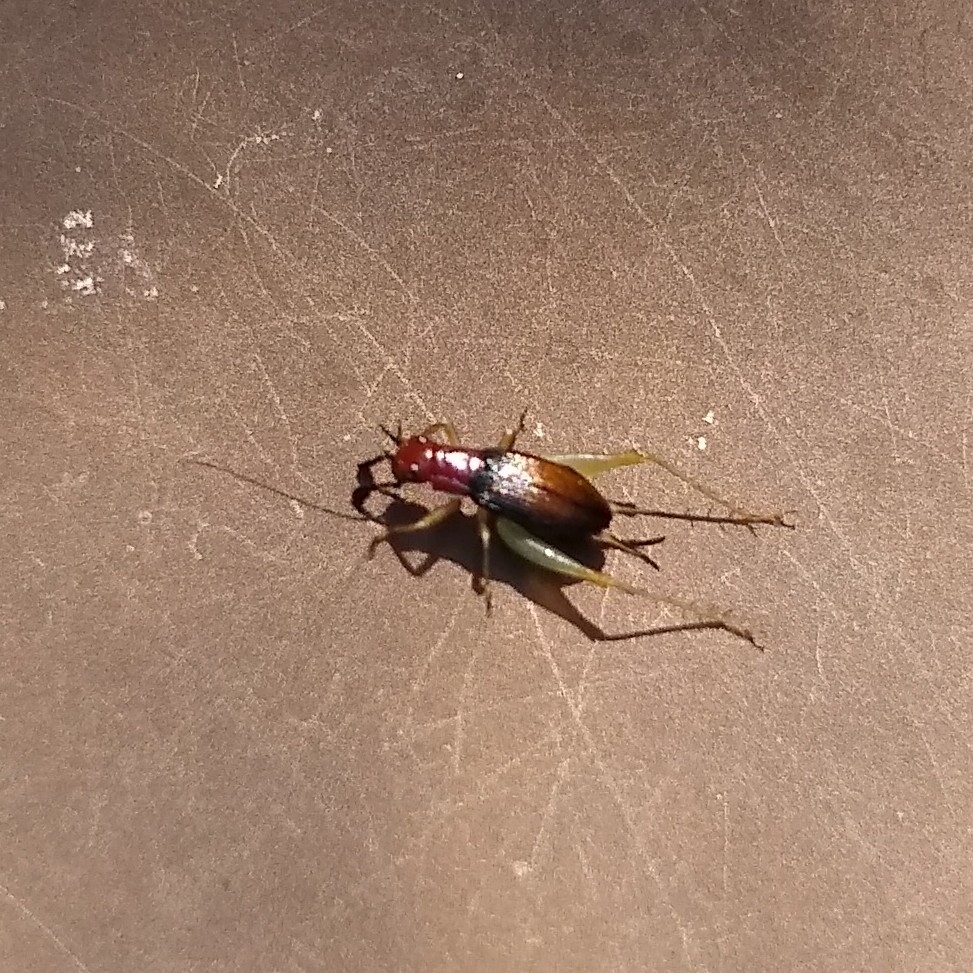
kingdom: Animalia
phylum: Arthropoda
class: Insecta
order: Orthoptera
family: Trigonidiidae
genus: Phyllopalpus
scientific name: Phyllopalpus pulchellus
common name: Handsome trig
